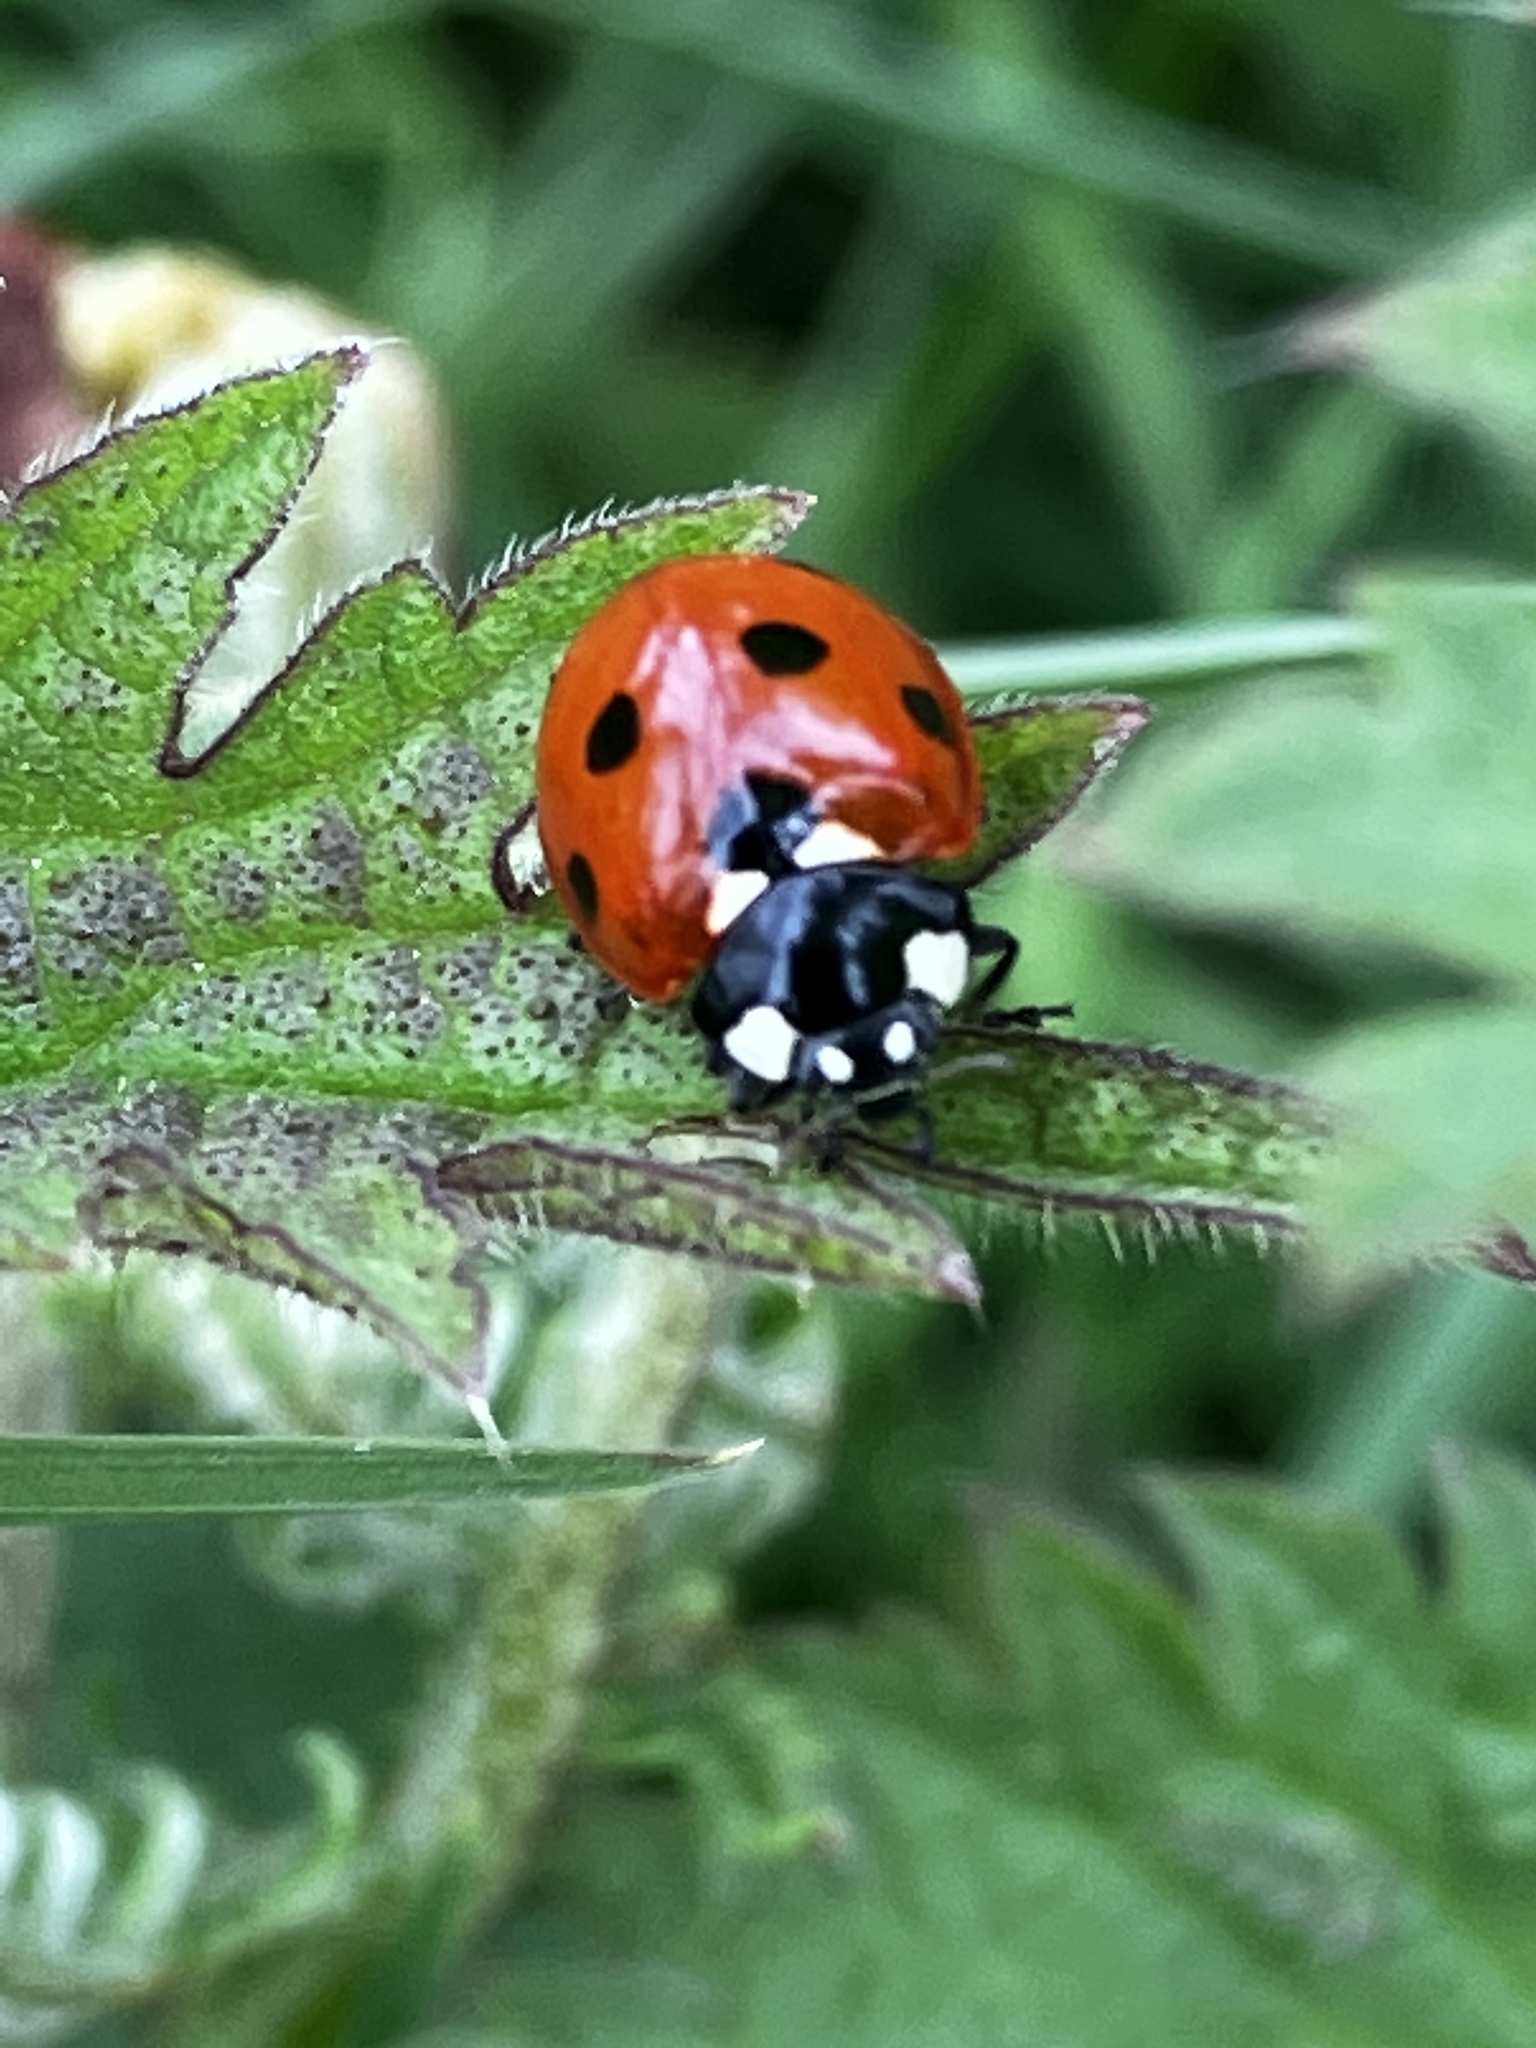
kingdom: Animalia
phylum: Arthropoda
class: Insecta
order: Coleoptera
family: Coccinellidae
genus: Coccinella
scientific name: Coccinella septempunctata
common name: Sevenspotted lady beetle
